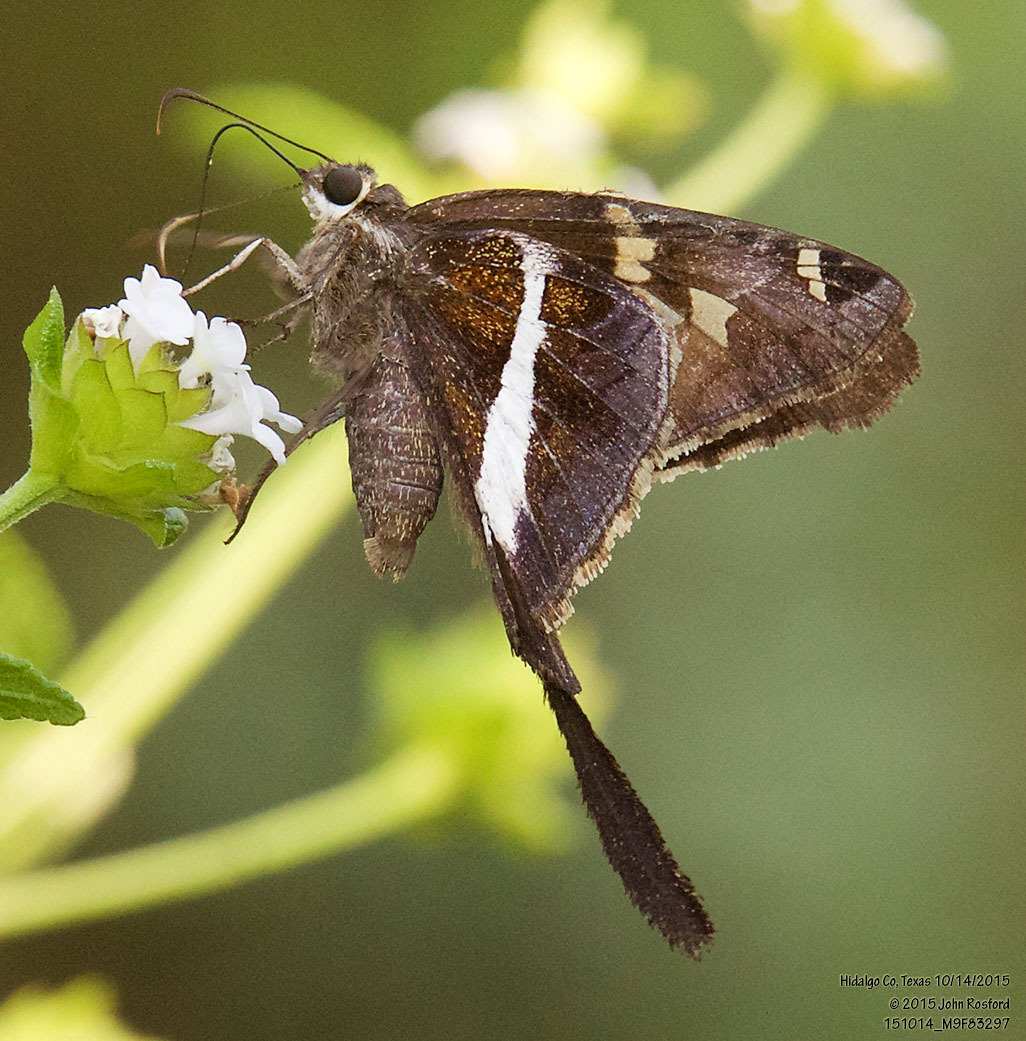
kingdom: Animalia
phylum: Arthropoda
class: Insecta
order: Lepidoptera
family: Hesperiidae
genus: Chioides
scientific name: Chioides catillus
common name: Silverbanded skipper
